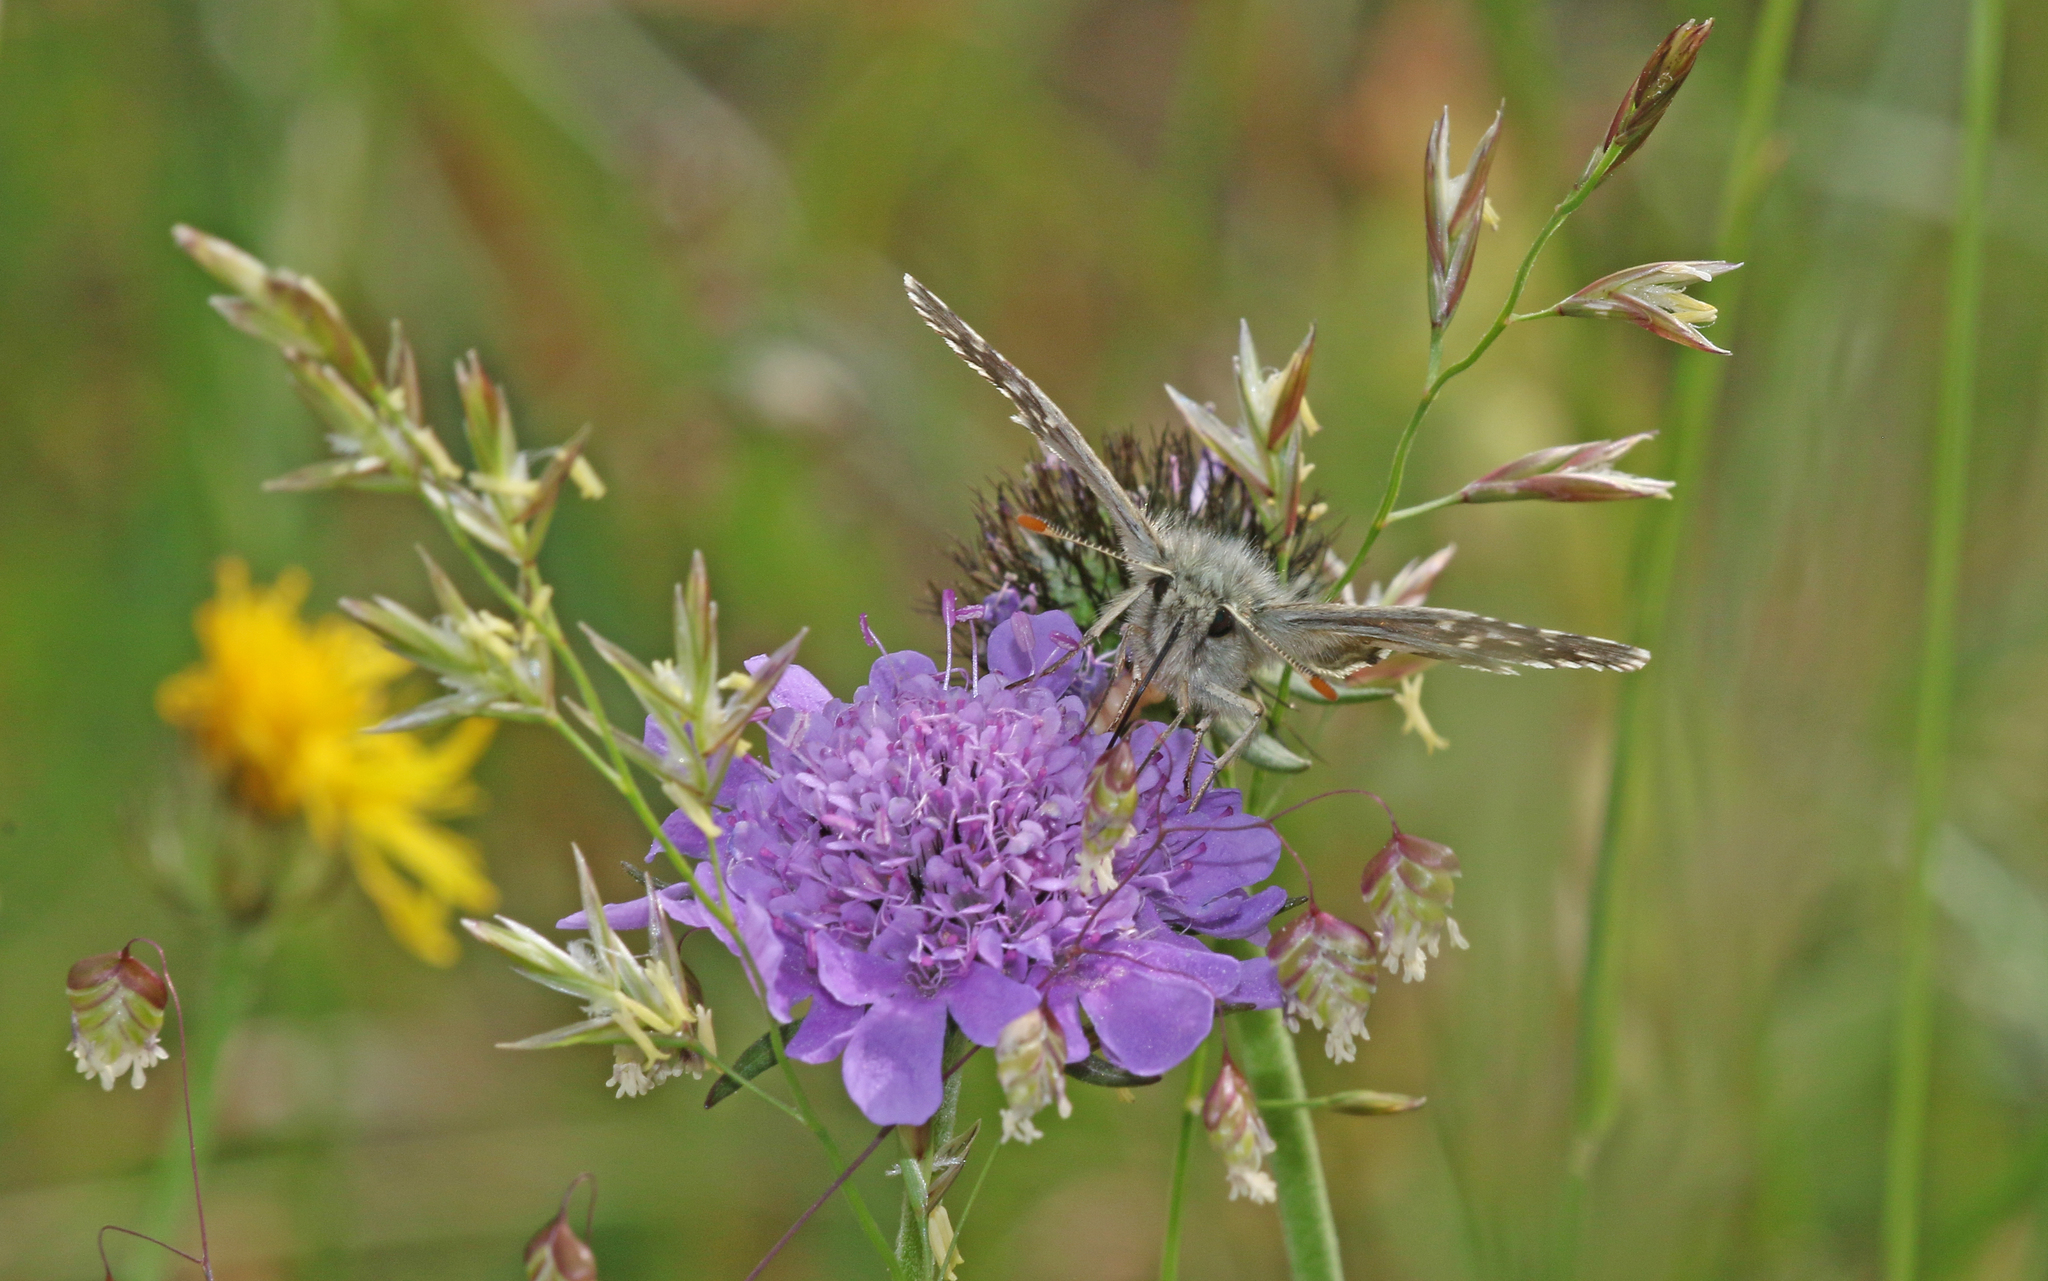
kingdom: Animalia
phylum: Arthropoda
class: Insecta
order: Lepidoptera
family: Hesperiidae
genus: Pyrgus
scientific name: Pyrgus alveus
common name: Large grizzled skipper
